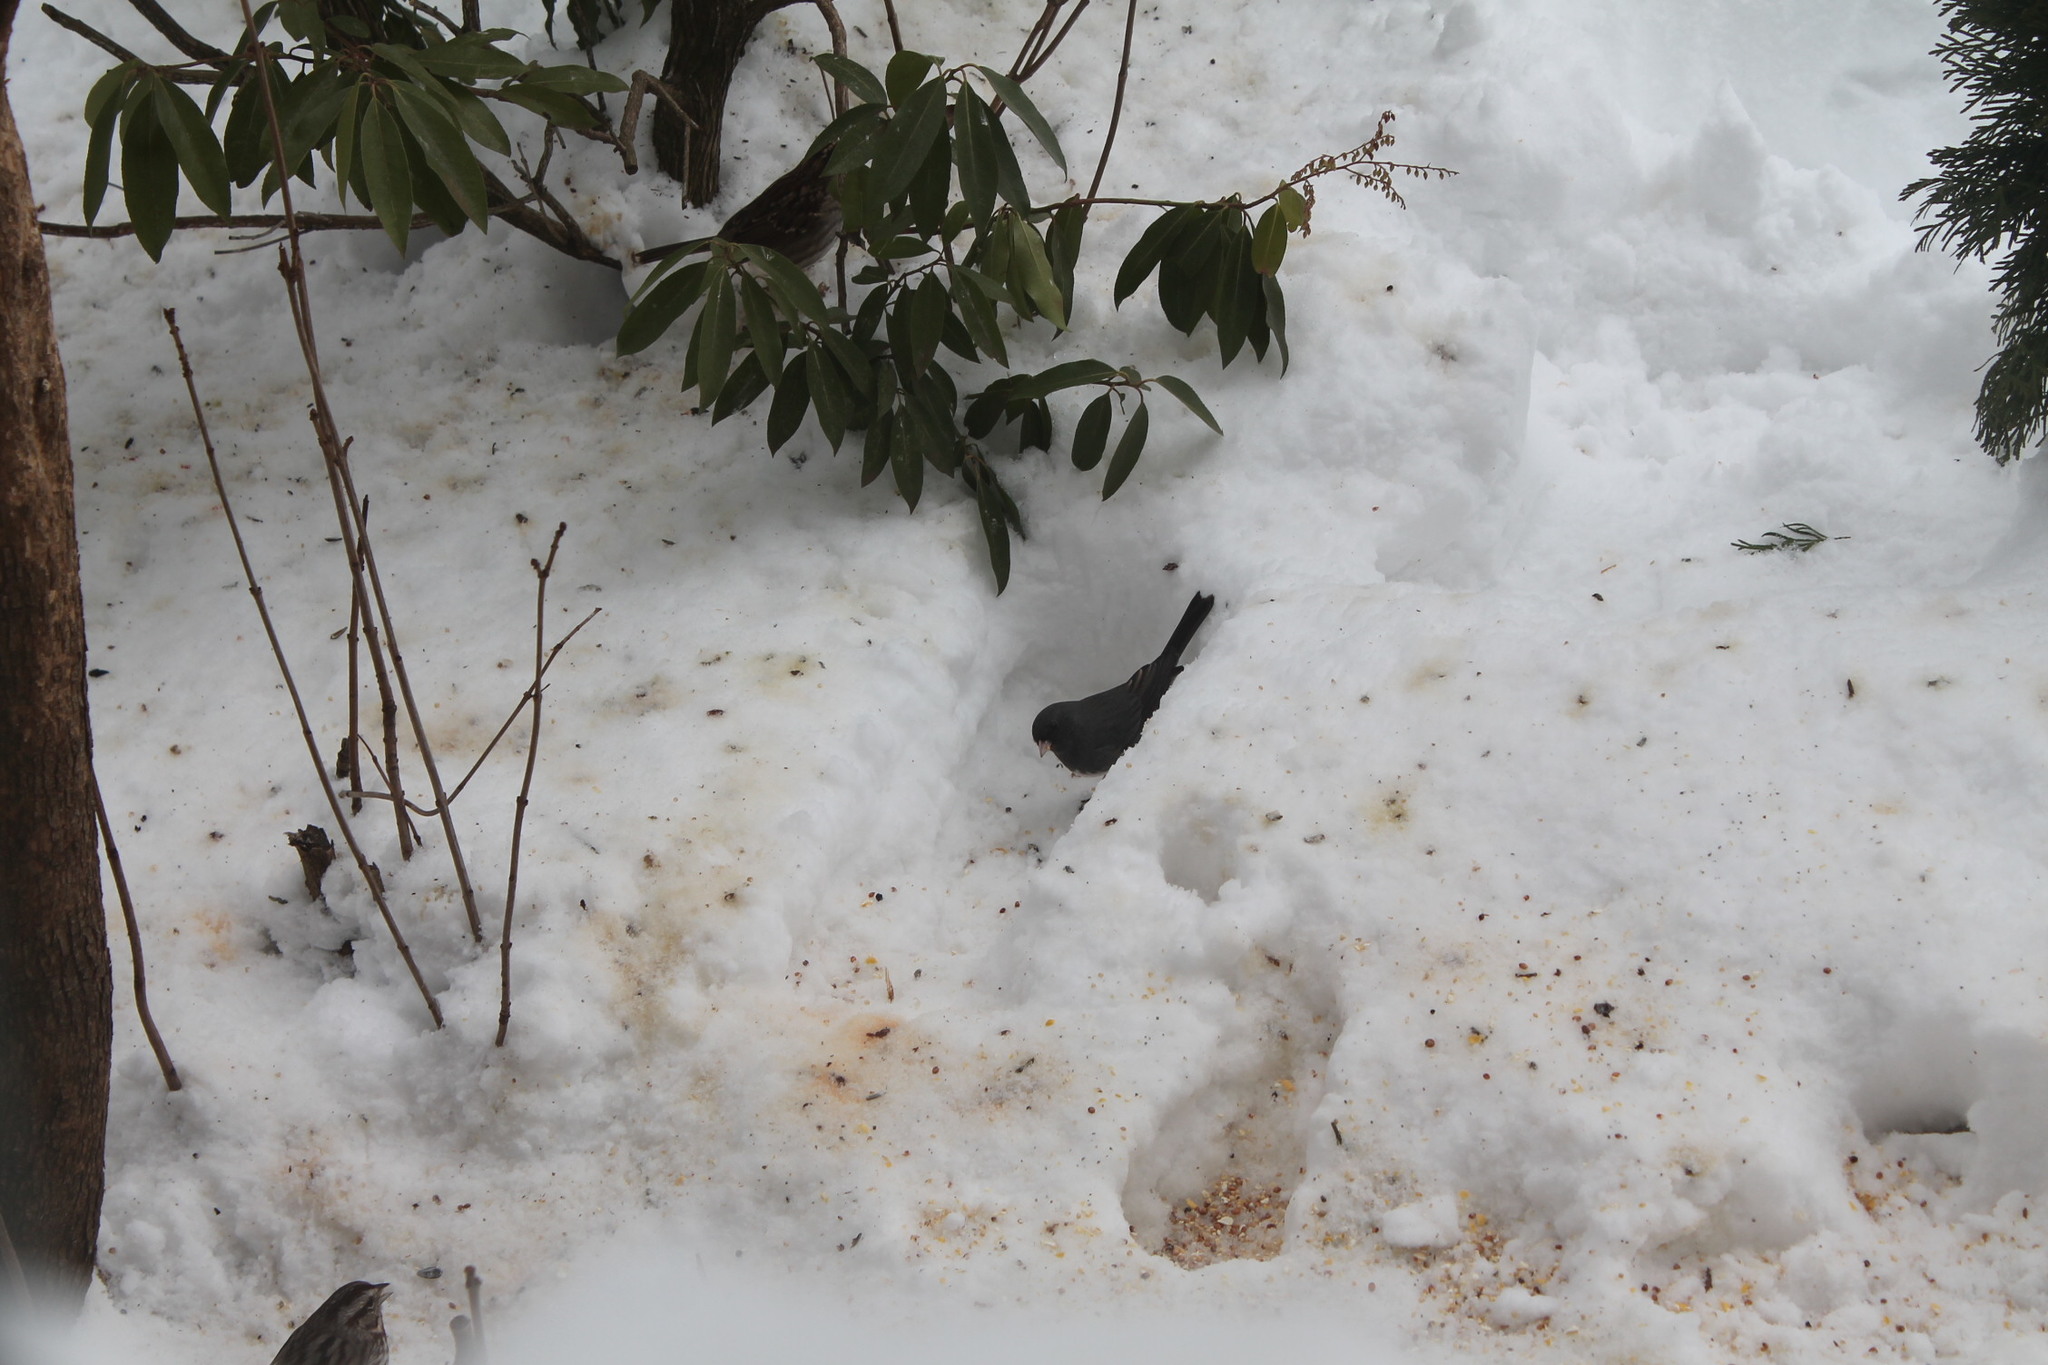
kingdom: Animalia
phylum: Chordata
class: Aves
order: Passeriformes
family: Passerellidae
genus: Junco
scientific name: Junco hyemalis
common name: Dark-eyed junco
